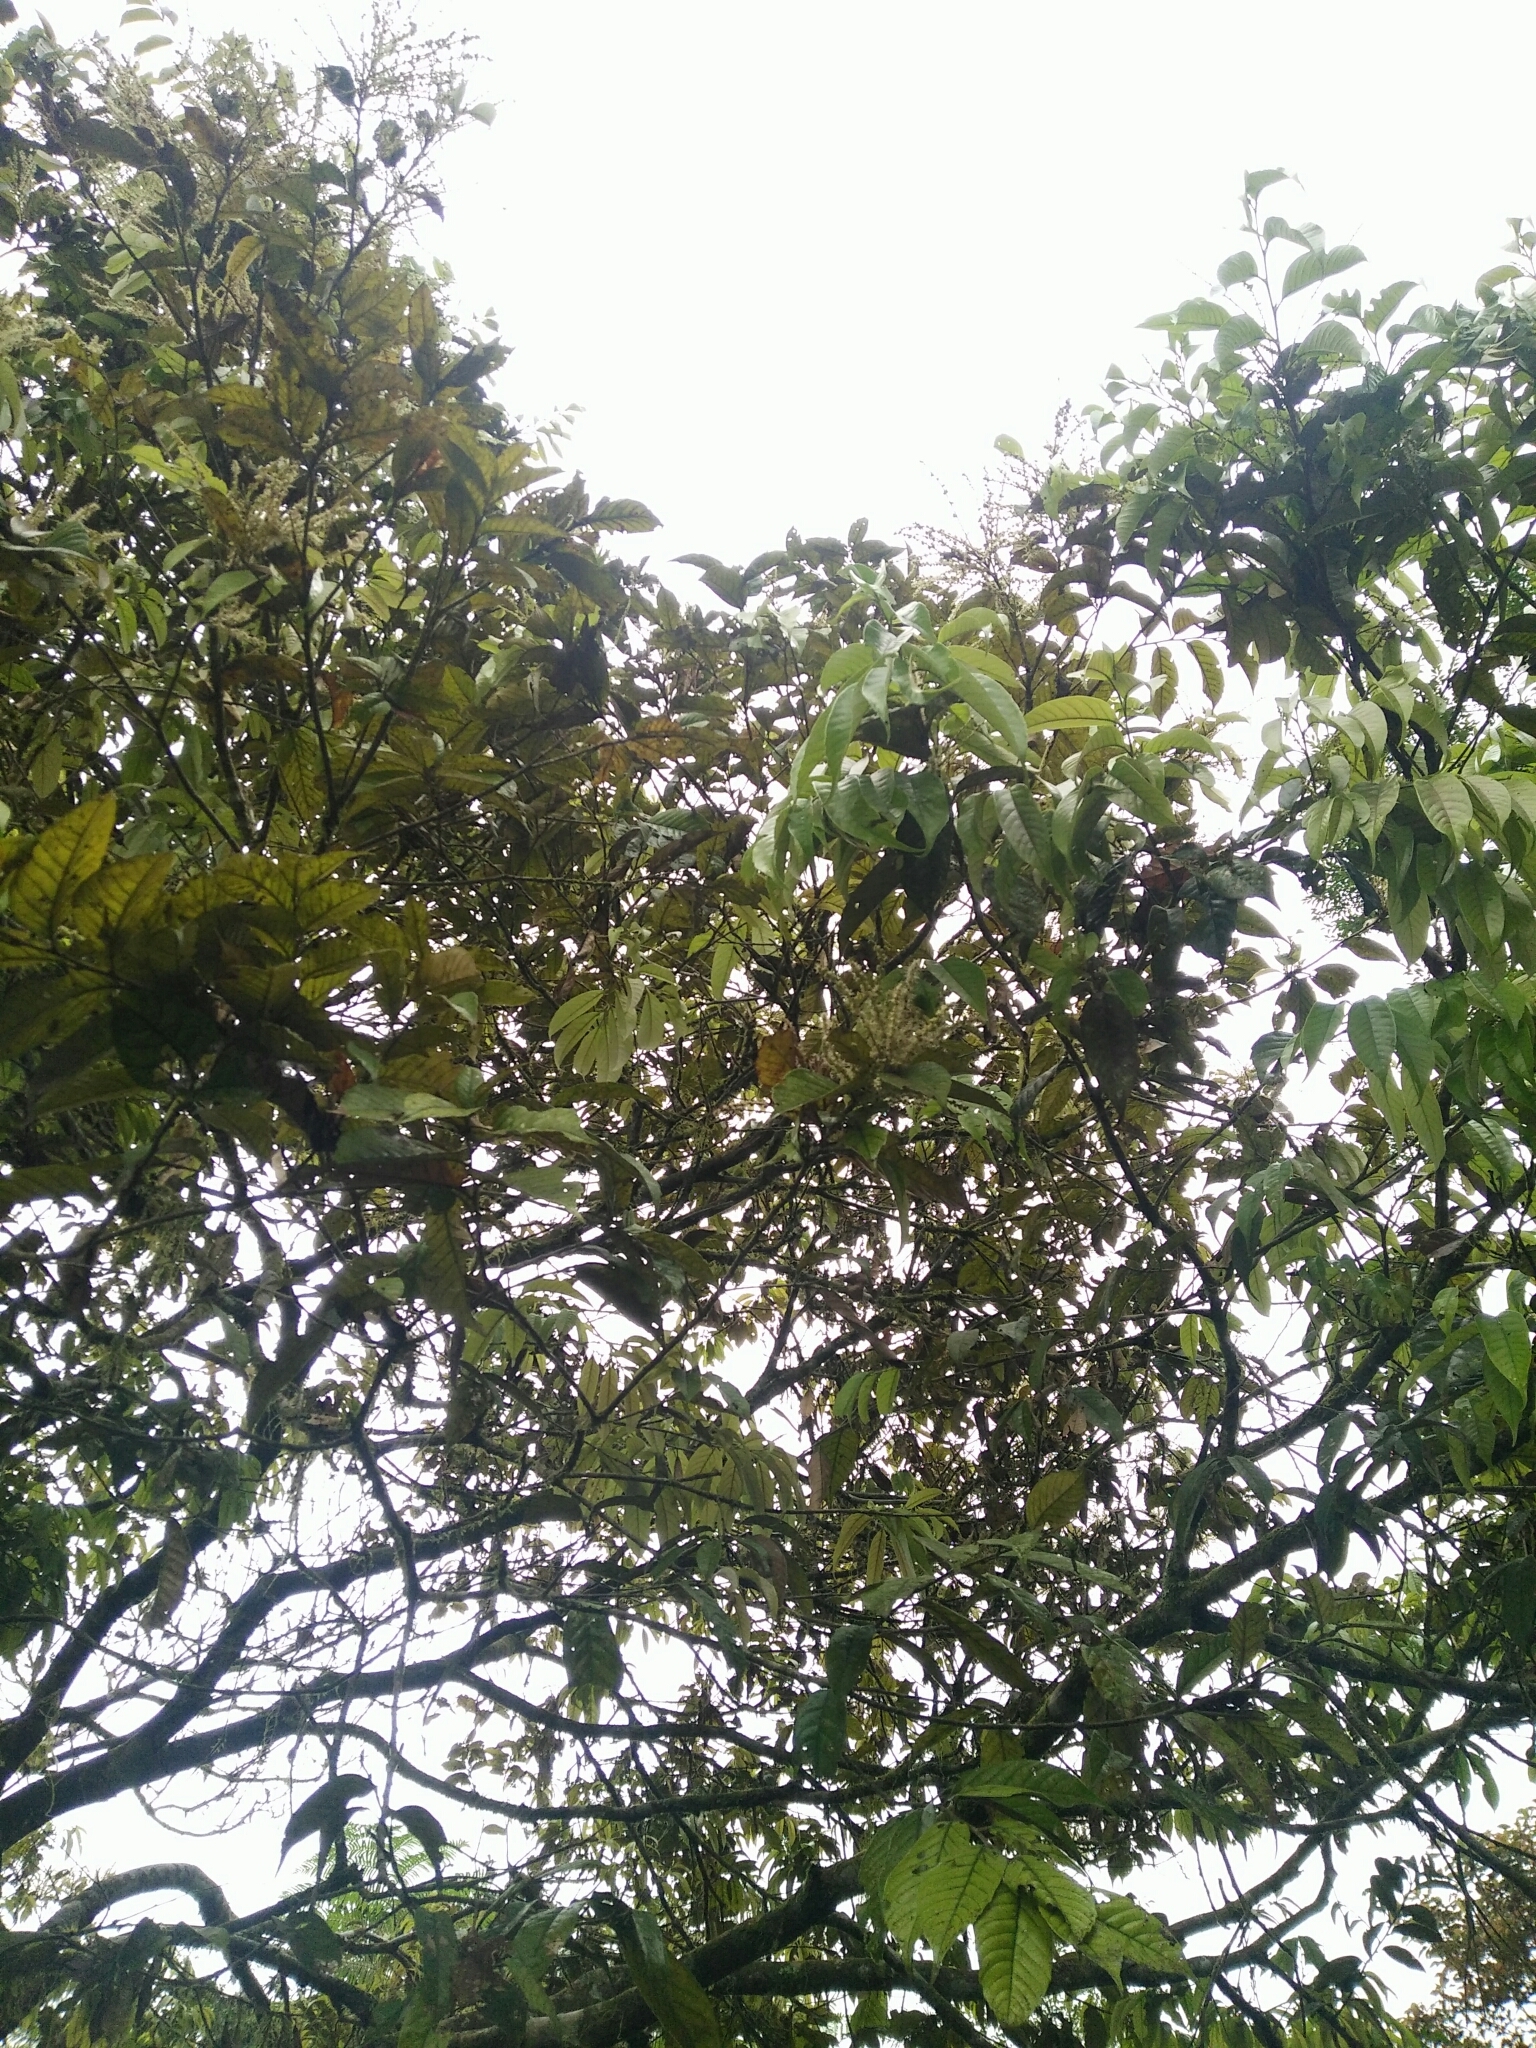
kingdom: Plantae
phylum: Tracheophyta
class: Magnoliopsida
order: Fagales
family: Fagaceae
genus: Castanopsis
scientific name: Castanopsis faberi
